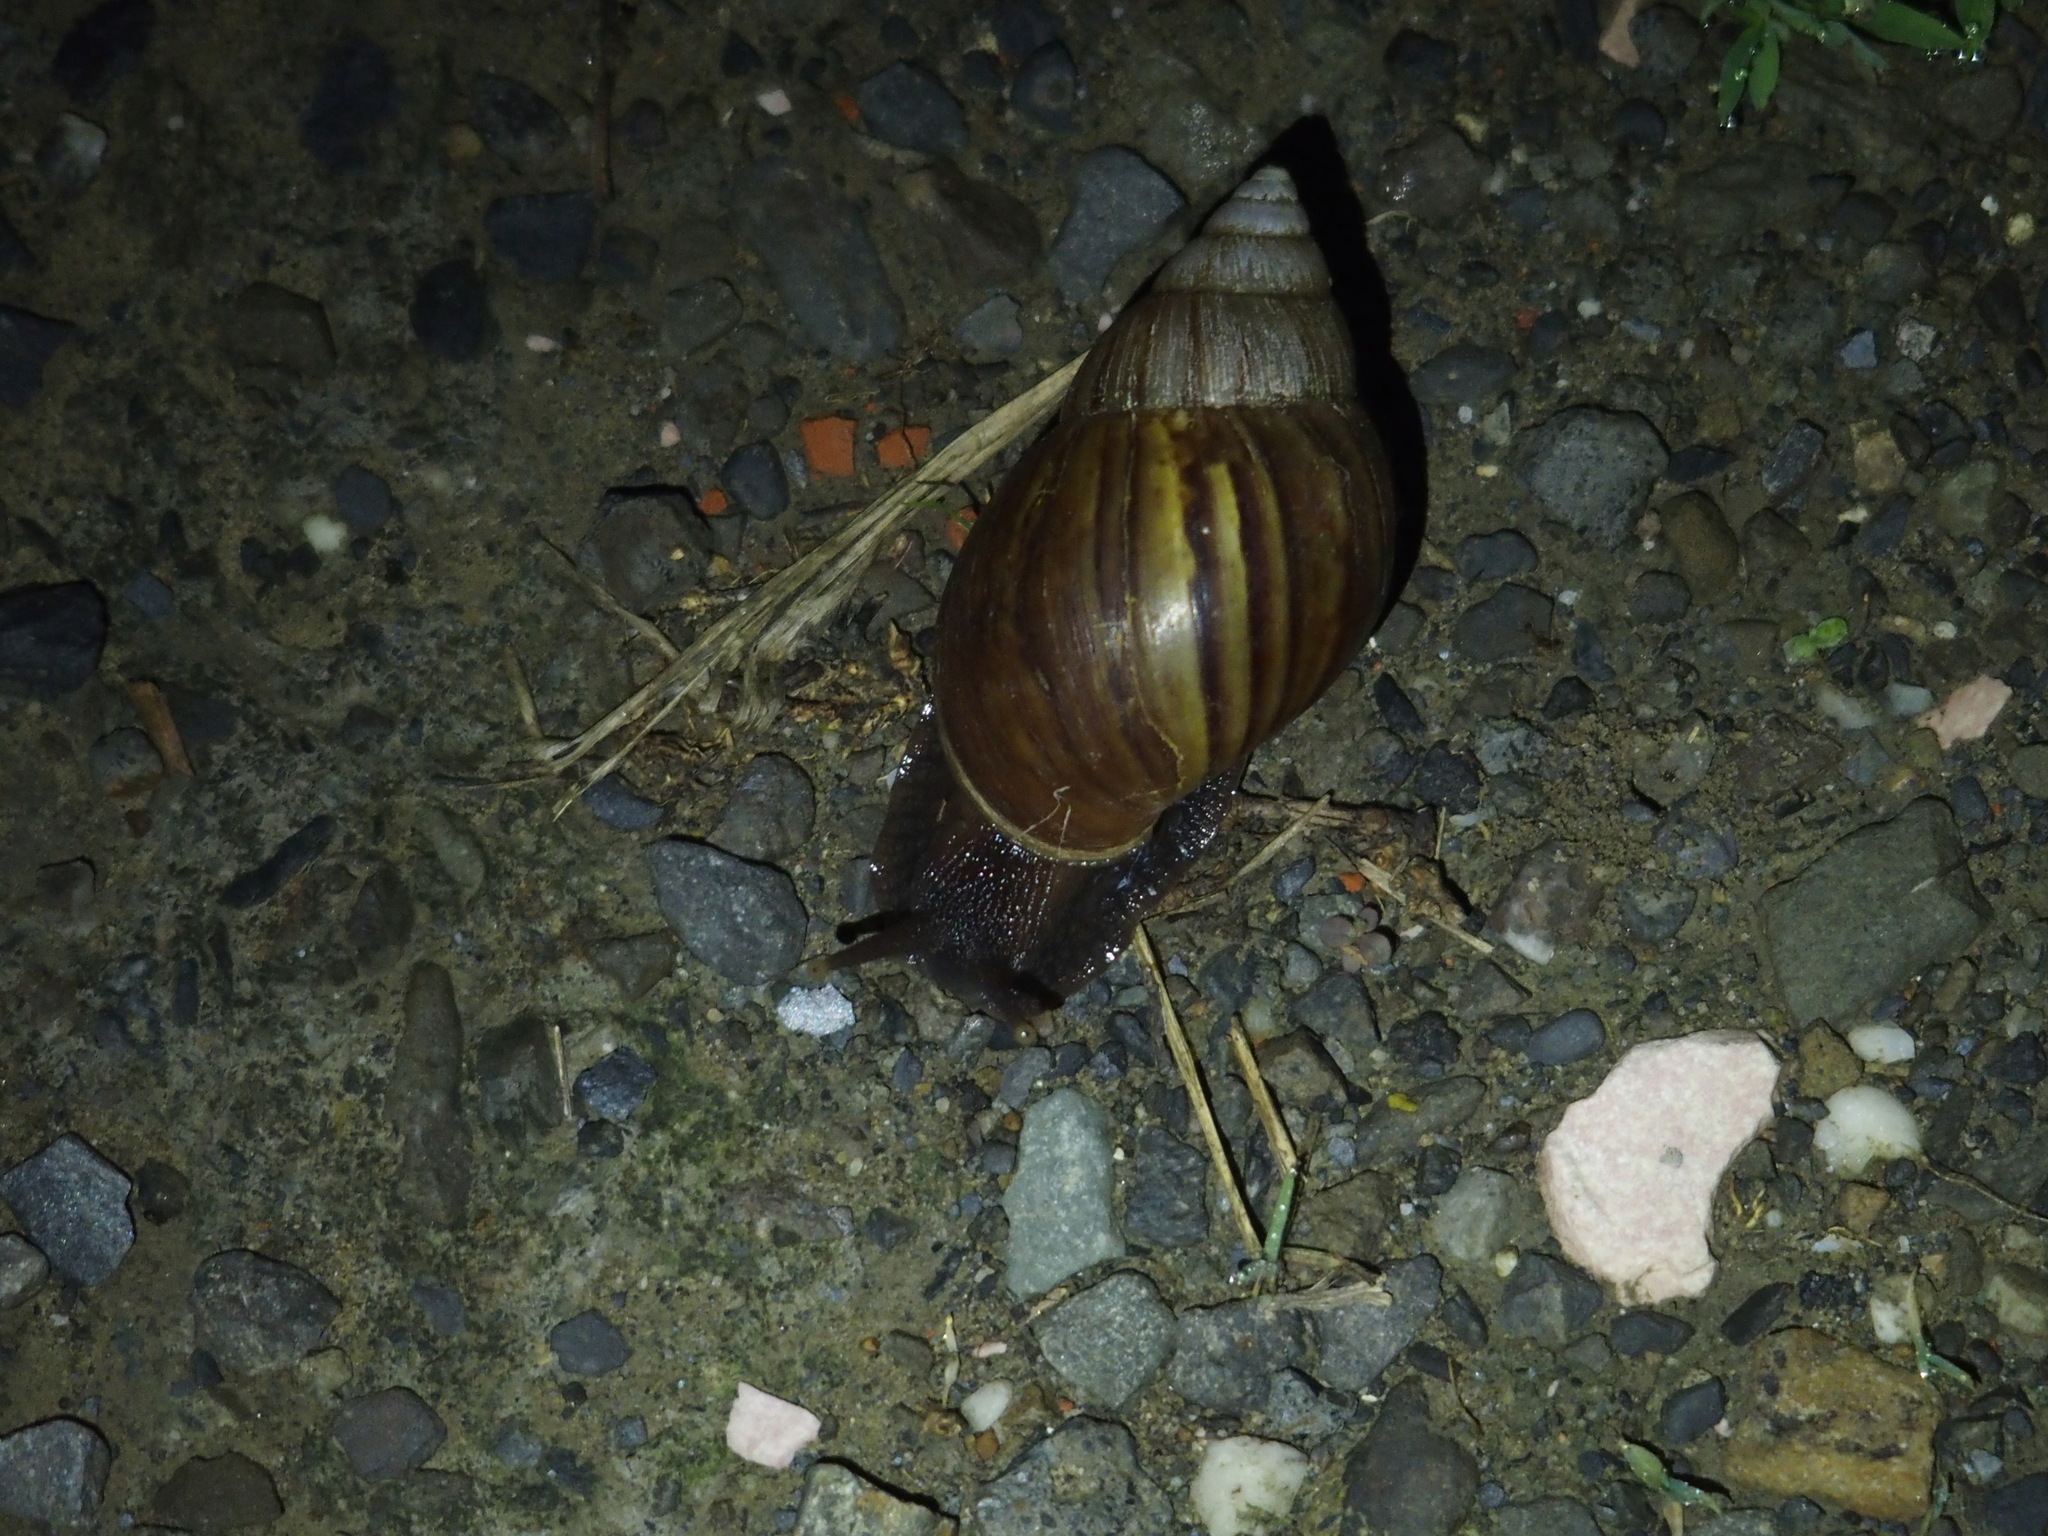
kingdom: Animalia
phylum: Mollusca
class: Gastropoda
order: Stylommatophora
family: Achatinidae
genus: Lissachatina
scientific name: Lissachatina fulica
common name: Giant african snail
